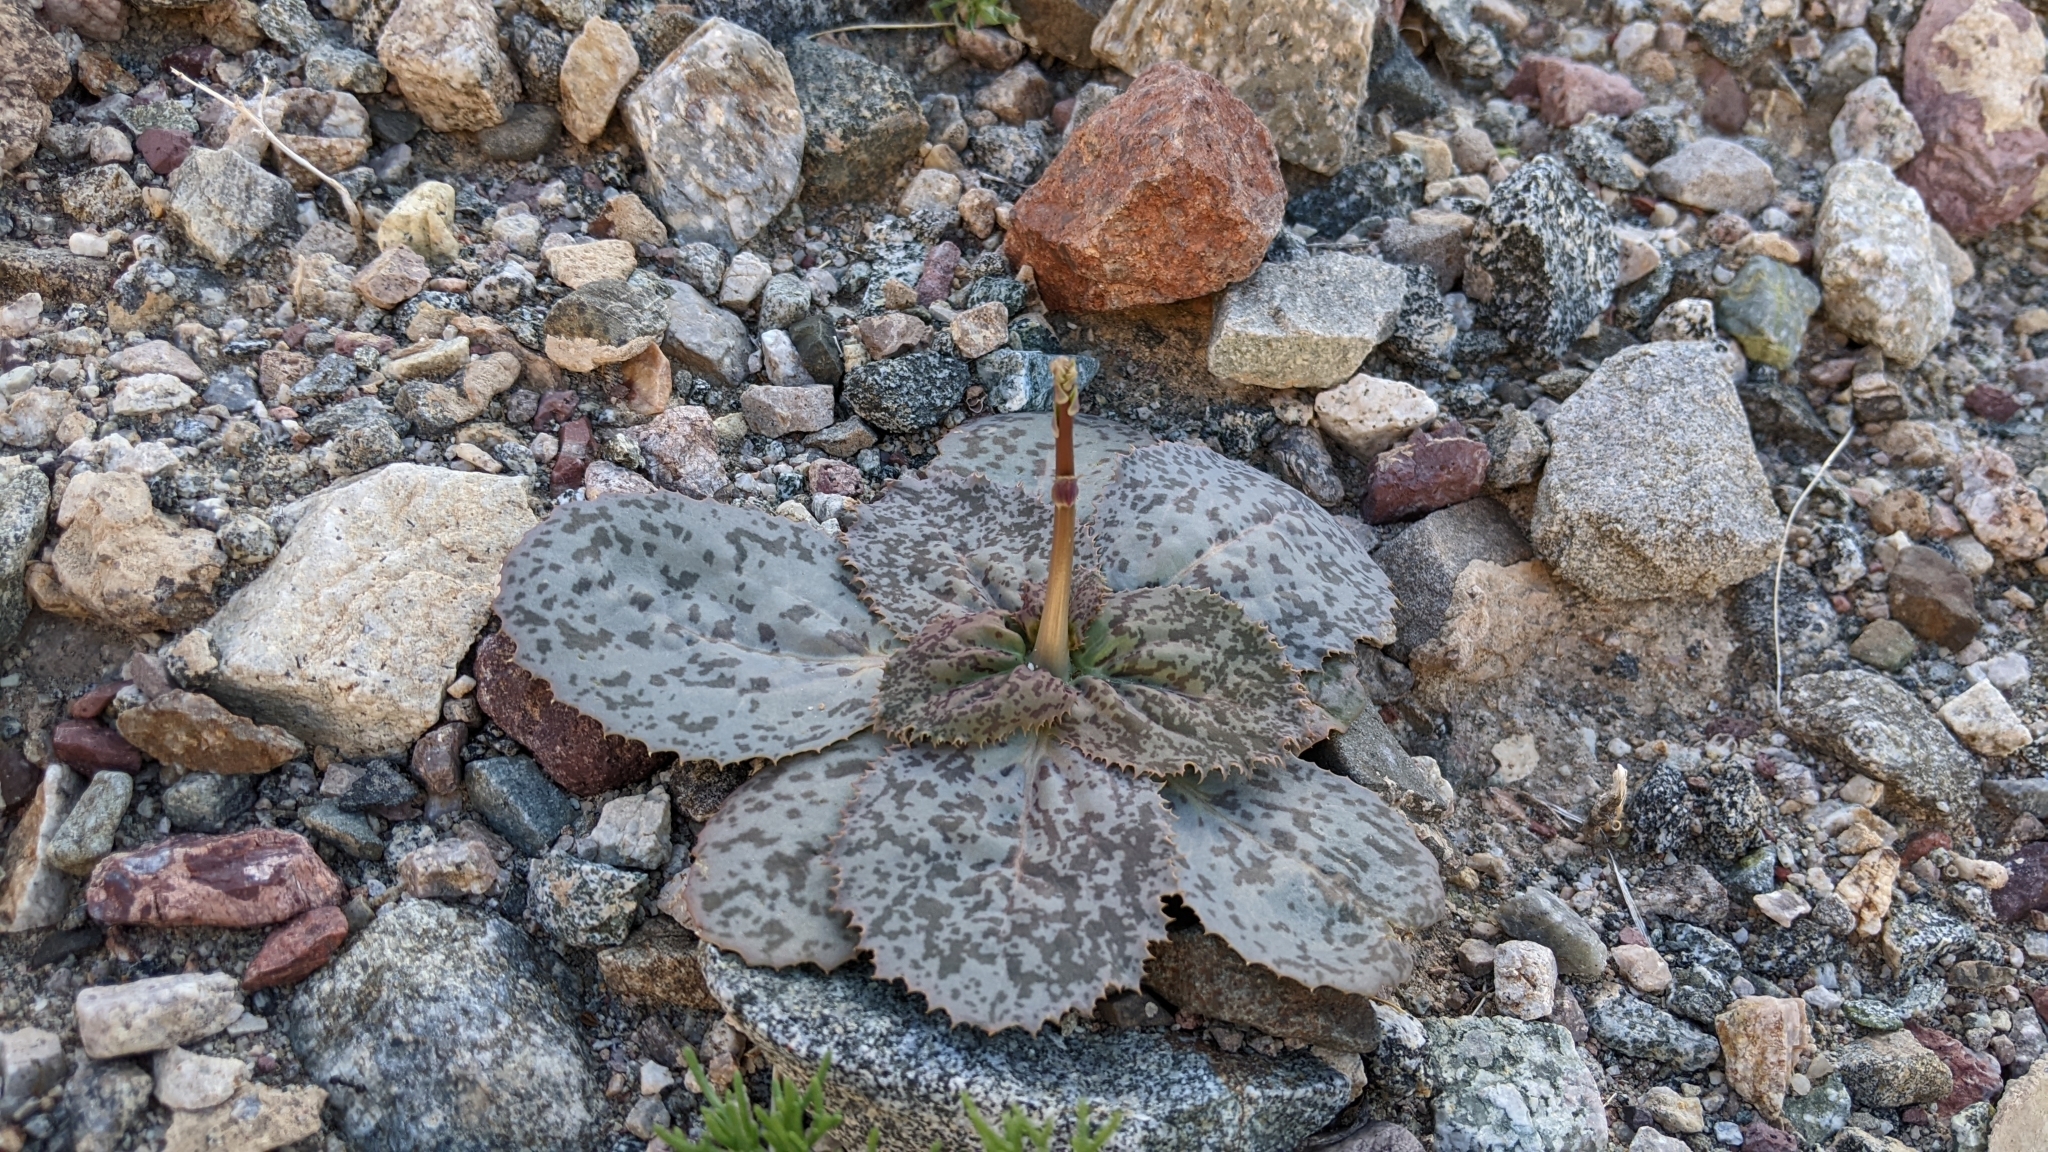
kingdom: Plantae
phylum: Tracheophyta
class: Magnoliopsida
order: Asterales
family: Asteraceae
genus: Atrichoseris
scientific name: Atrichoseris platyphylla
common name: Tobaccoweed
